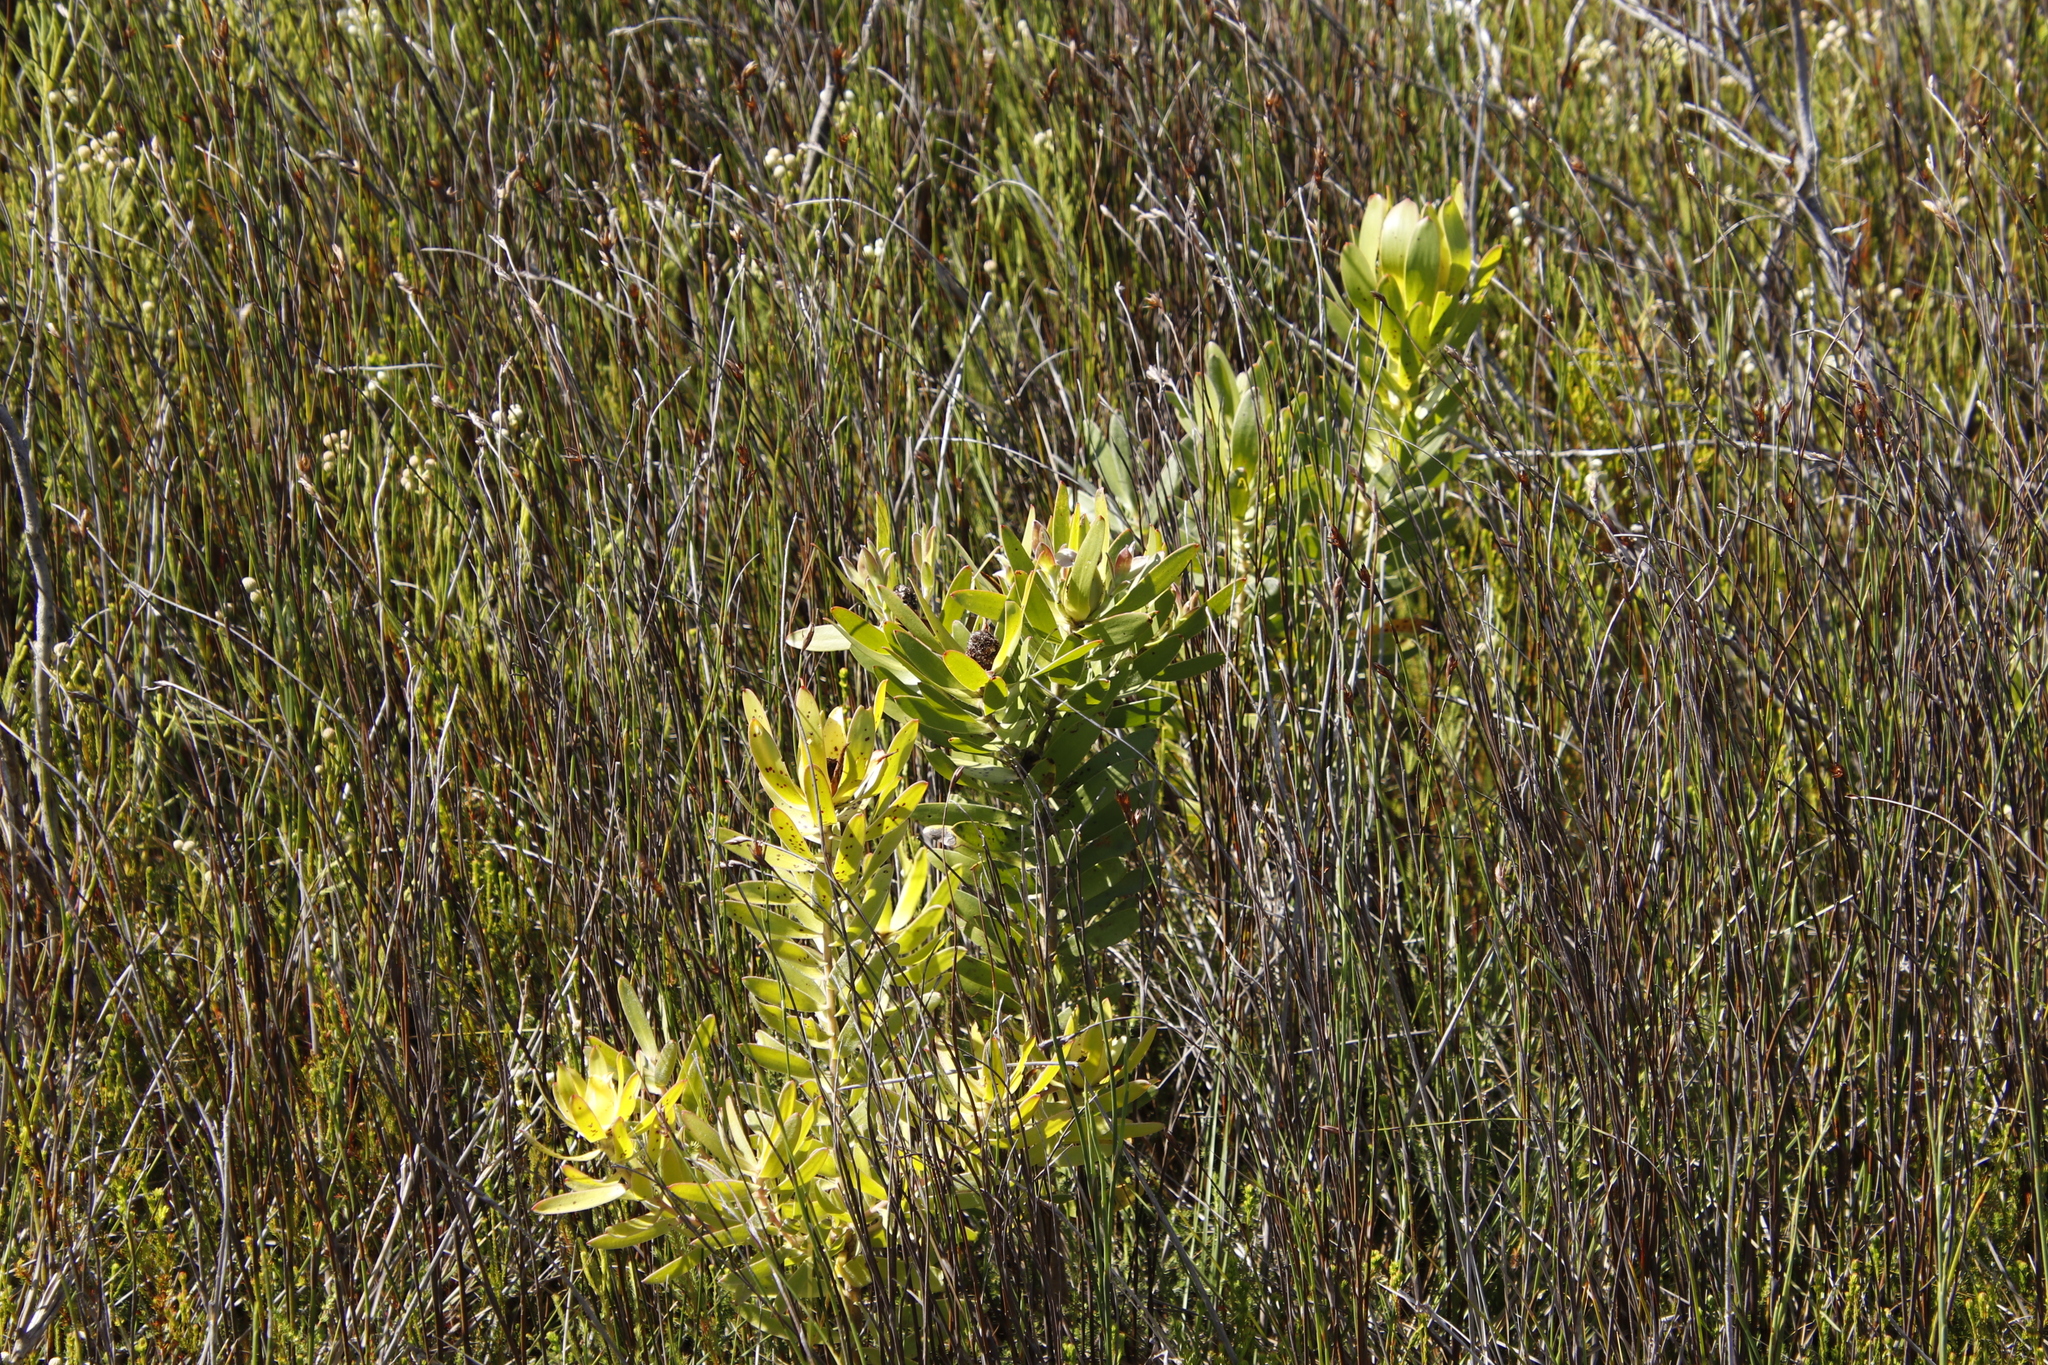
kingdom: Plantae
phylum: Tracheophyta
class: Magnoliopsida
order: Proteales
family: Proteaceae
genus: Leucadendron
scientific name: Leucadendron laureolum
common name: Golden sunshinebush
